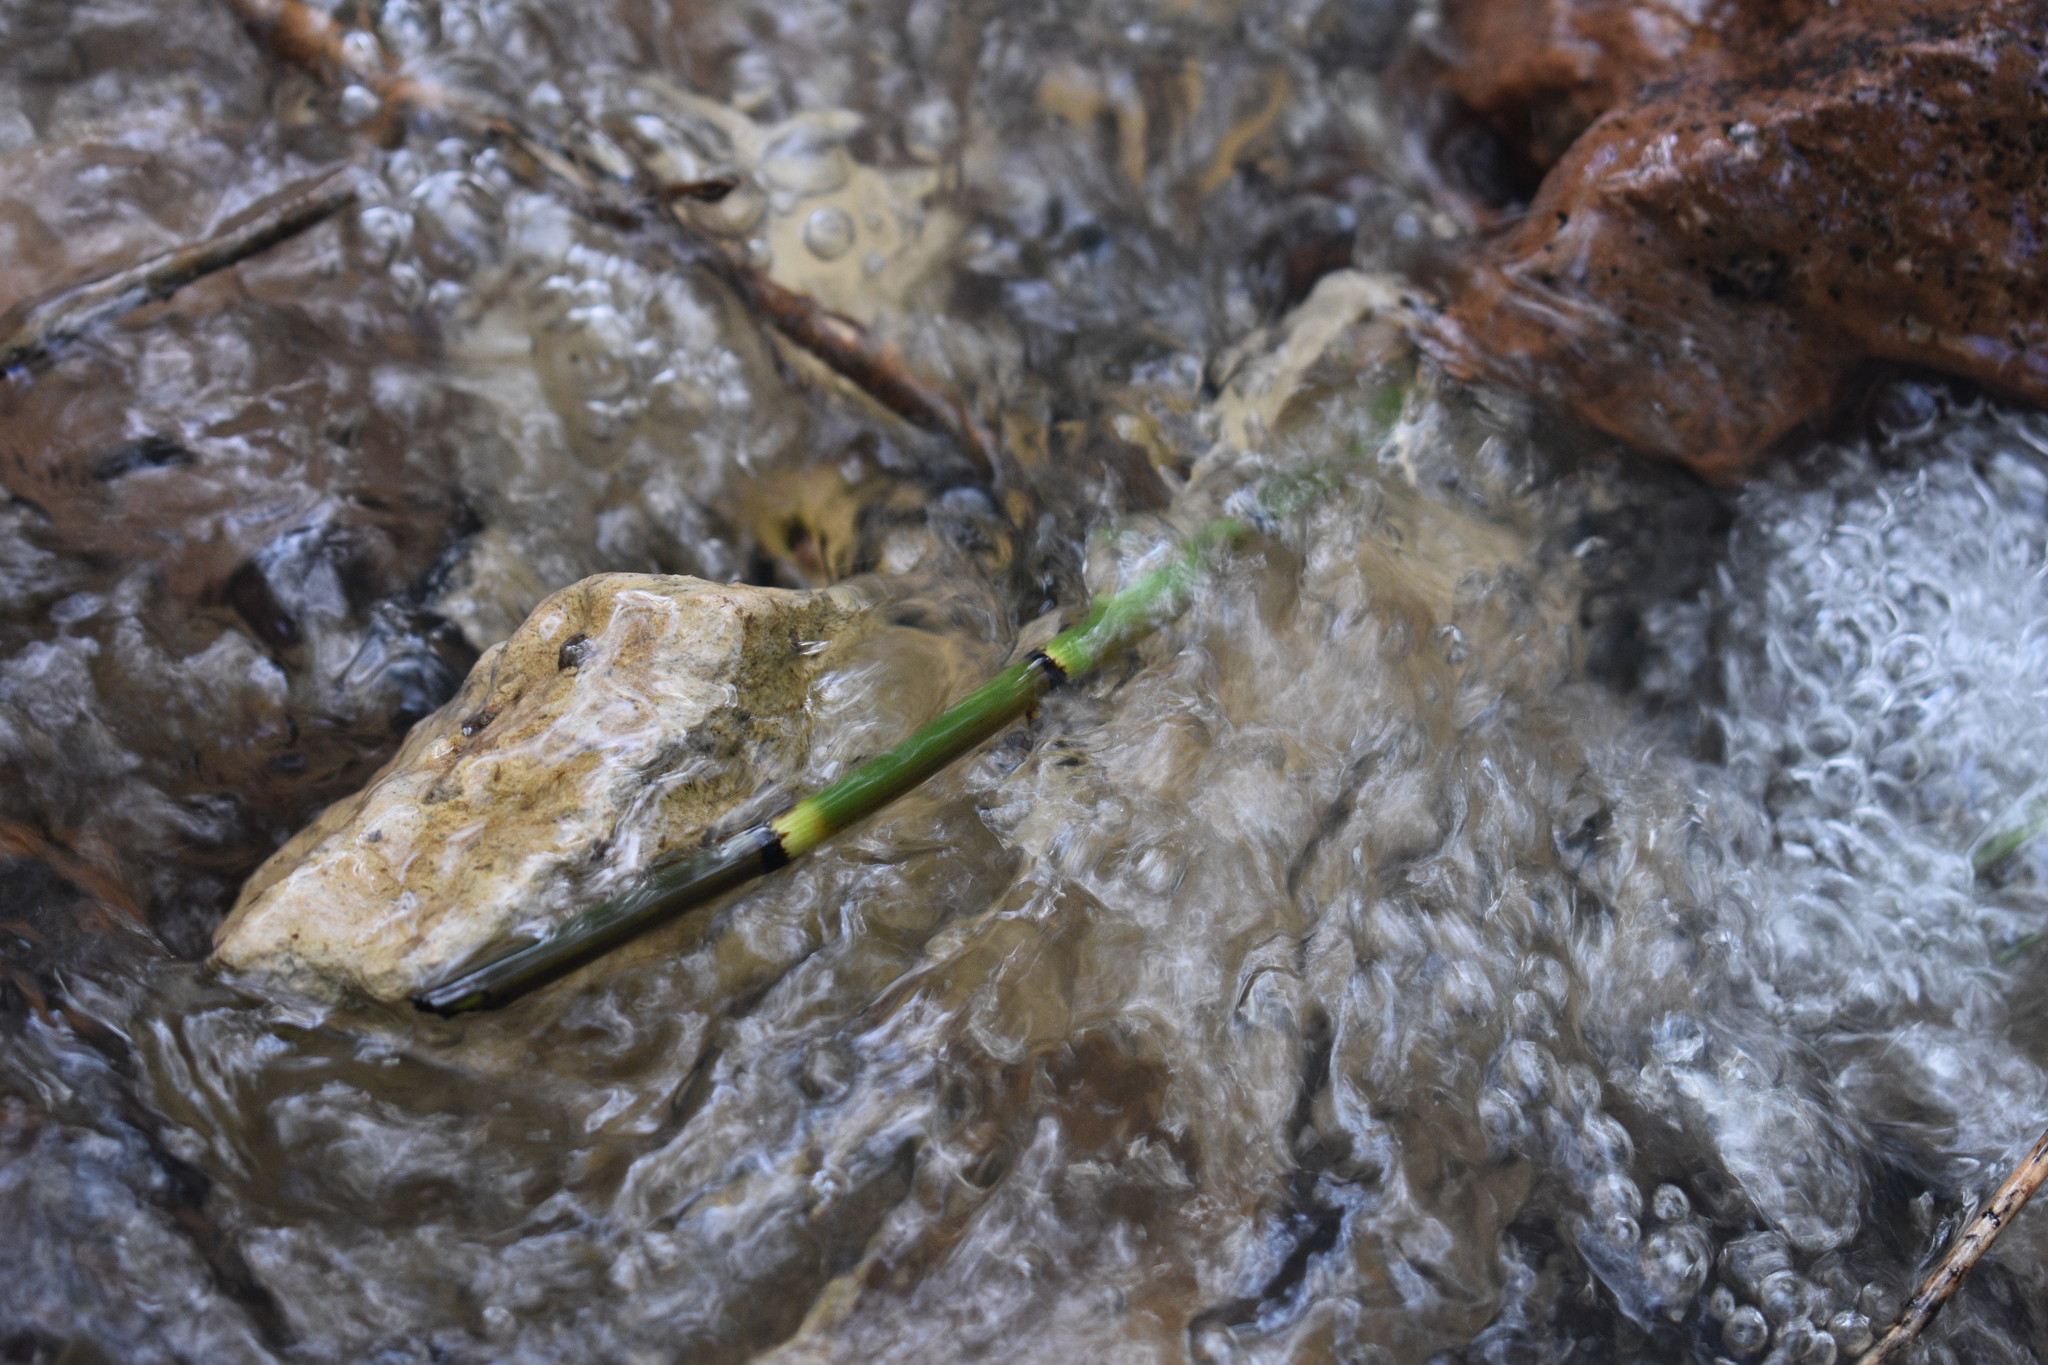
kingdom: Plantae
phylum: Tracheophyta
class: Polypodiopsida
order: Equisetales
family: Equisetaceae
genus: Equisetum
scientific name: Equisetum praealtum
